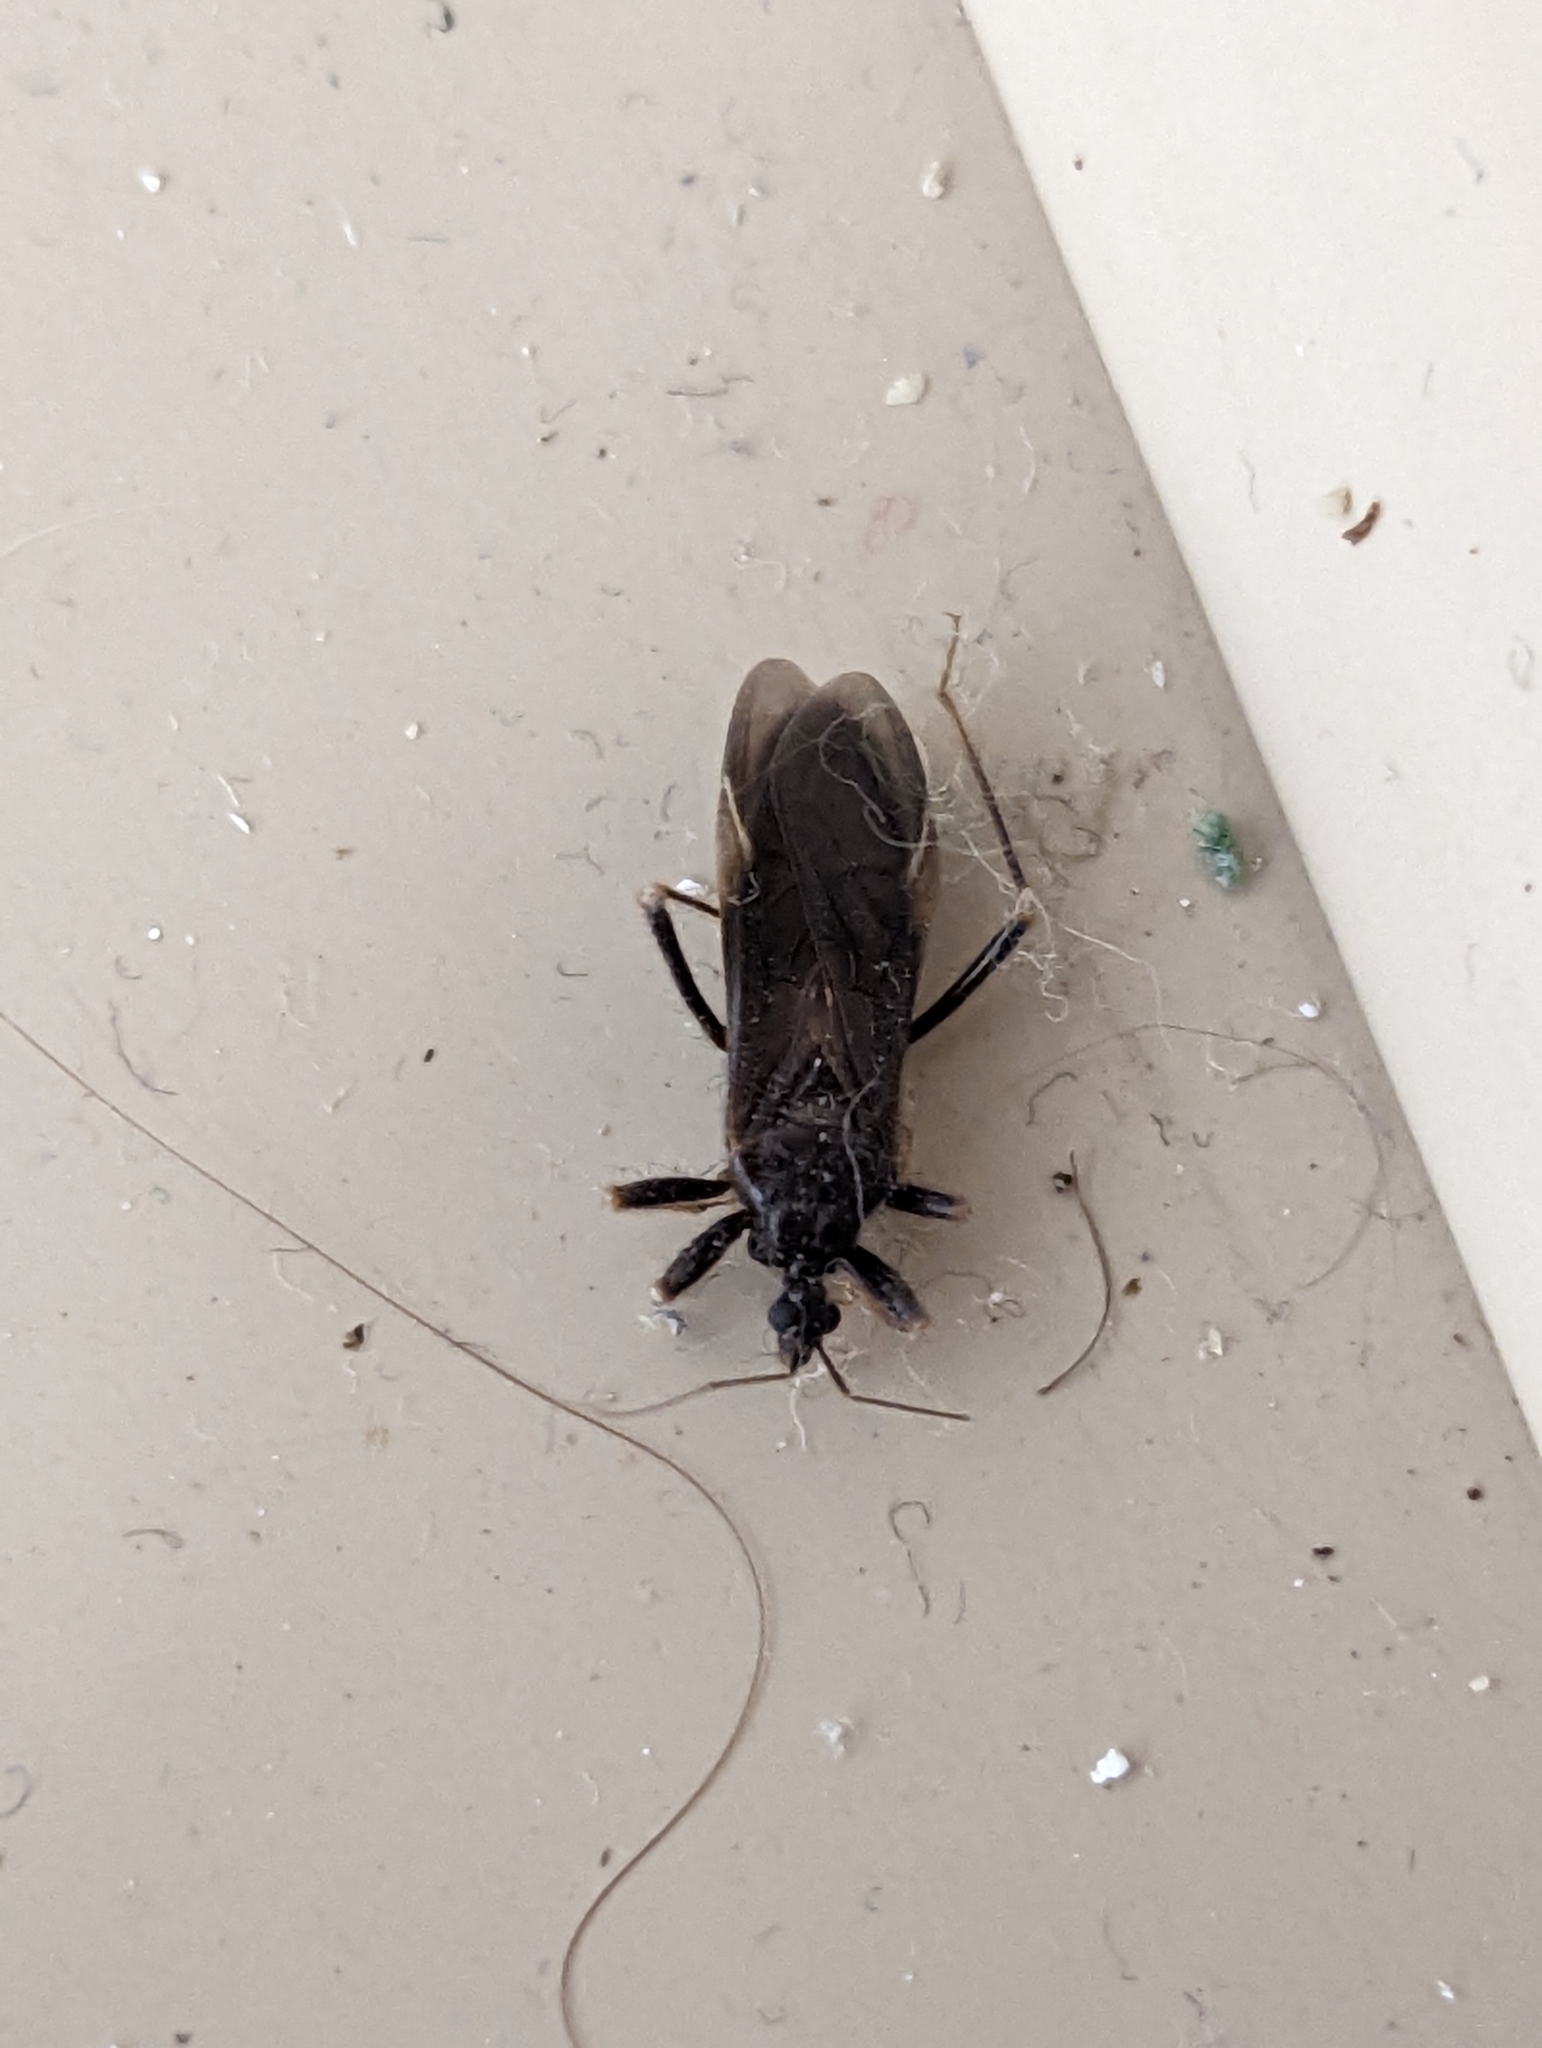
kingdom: Animalia
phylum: Arthropoda
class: Insecta
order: Hemiptera
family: Reduviidae
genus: Reduvius
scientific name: Reduvius personatus
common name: Masked hunter
